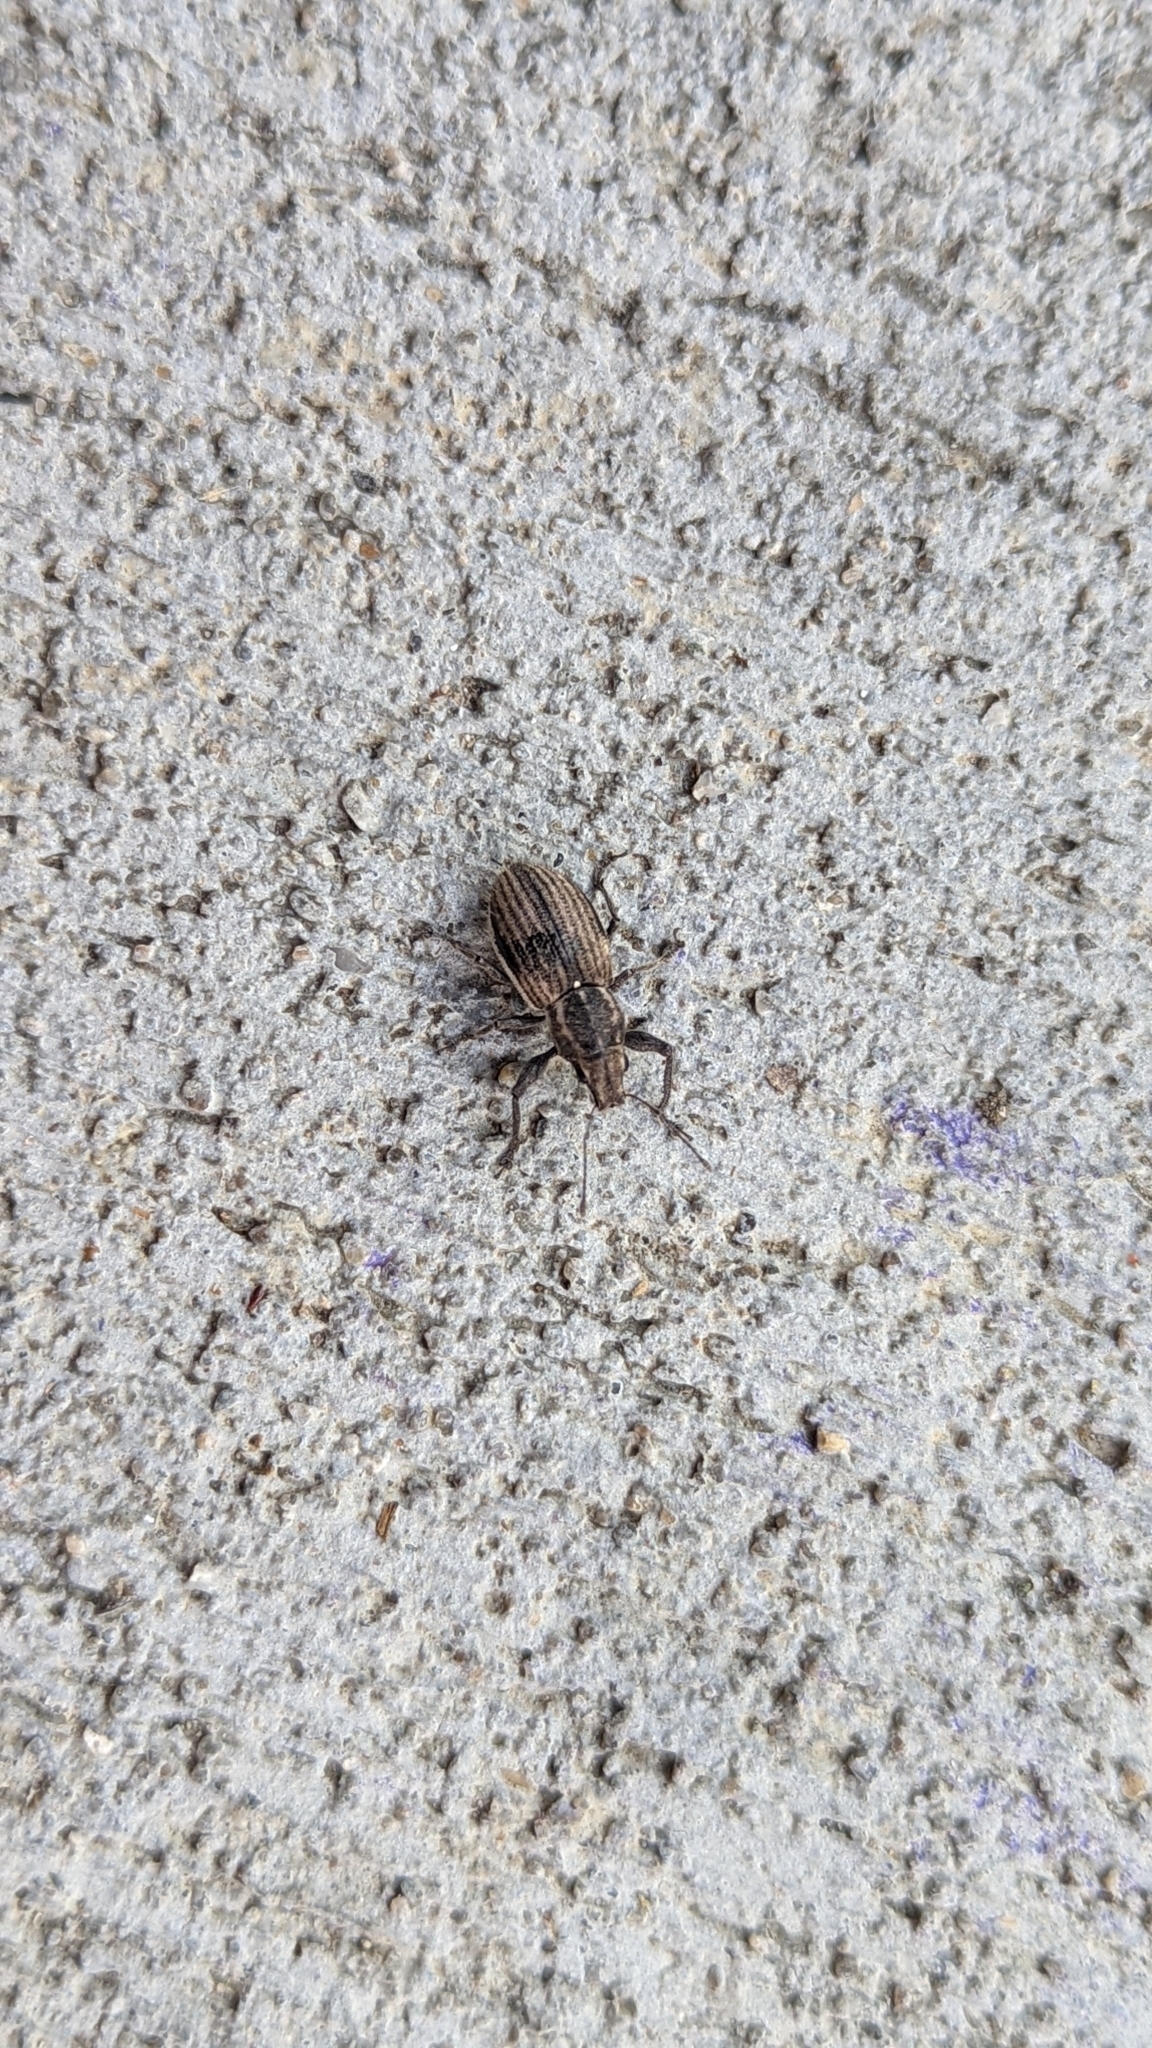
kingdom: Animalia
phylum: Arthropoda
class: Insecta
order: Coleoptera
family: Curculionidae
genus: Naupactus
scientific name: Naupactus leucoloma
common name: Whitefringed beetle
